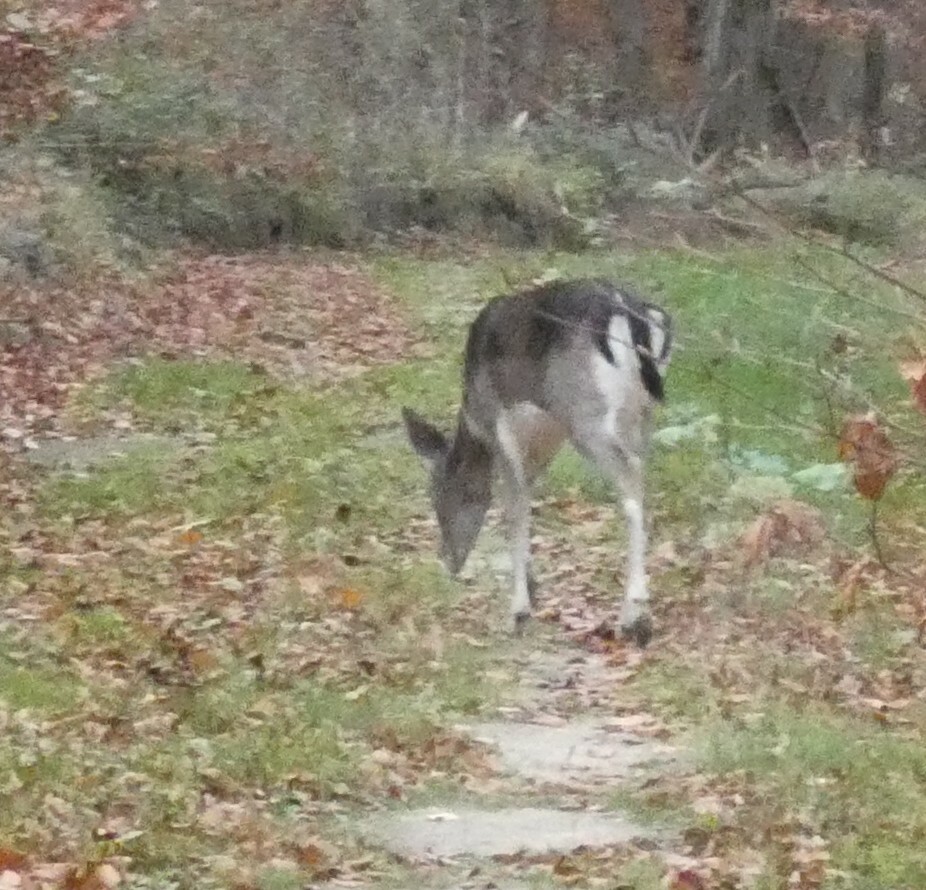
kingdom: Animalia
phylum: Chordata
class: Mammalia
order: Artiodactyla
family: Cervidae
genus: Dama
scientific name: Dama dama
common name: Fallow deer
